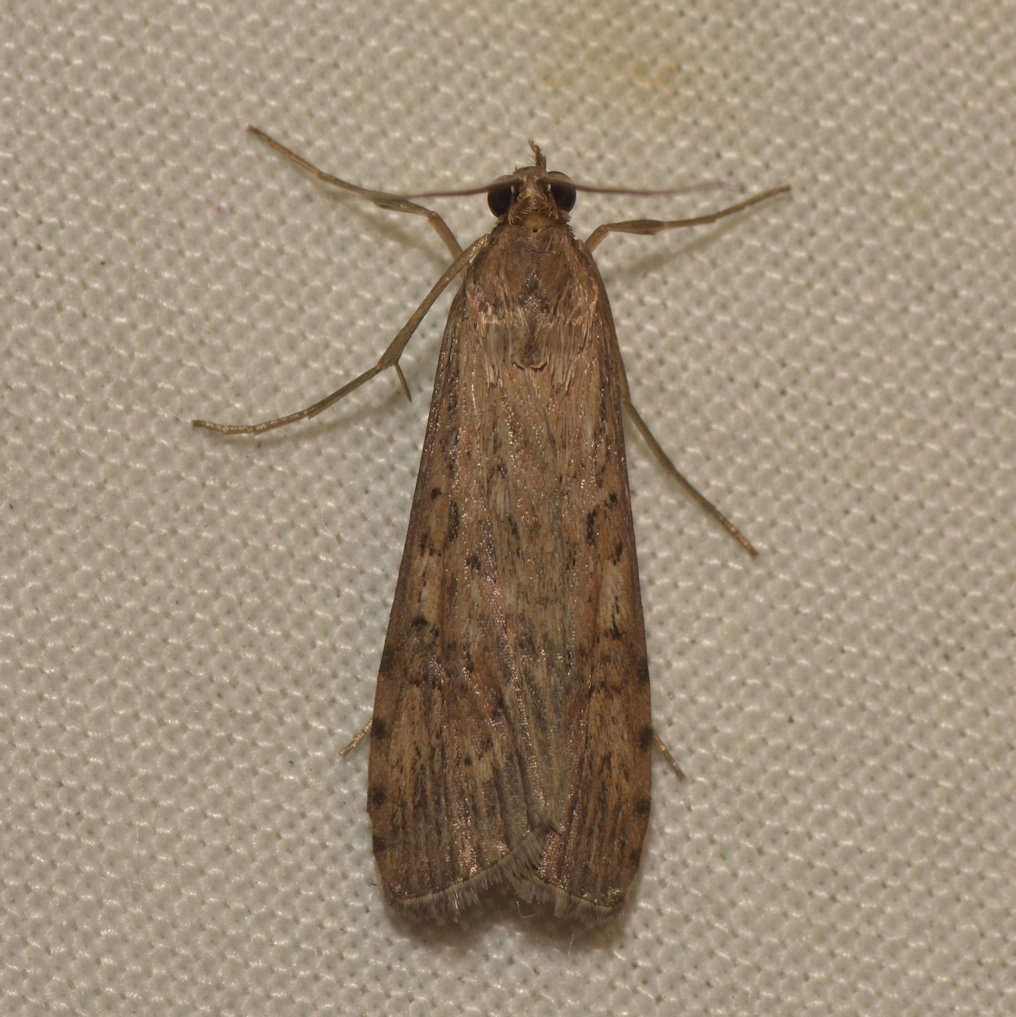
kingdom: Animalia
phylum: Arthropoda
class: Insecta
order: Lepidoptera
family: Crambidae
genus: Nomophila
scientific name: Nomophila nearctica
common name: American rush veneer
